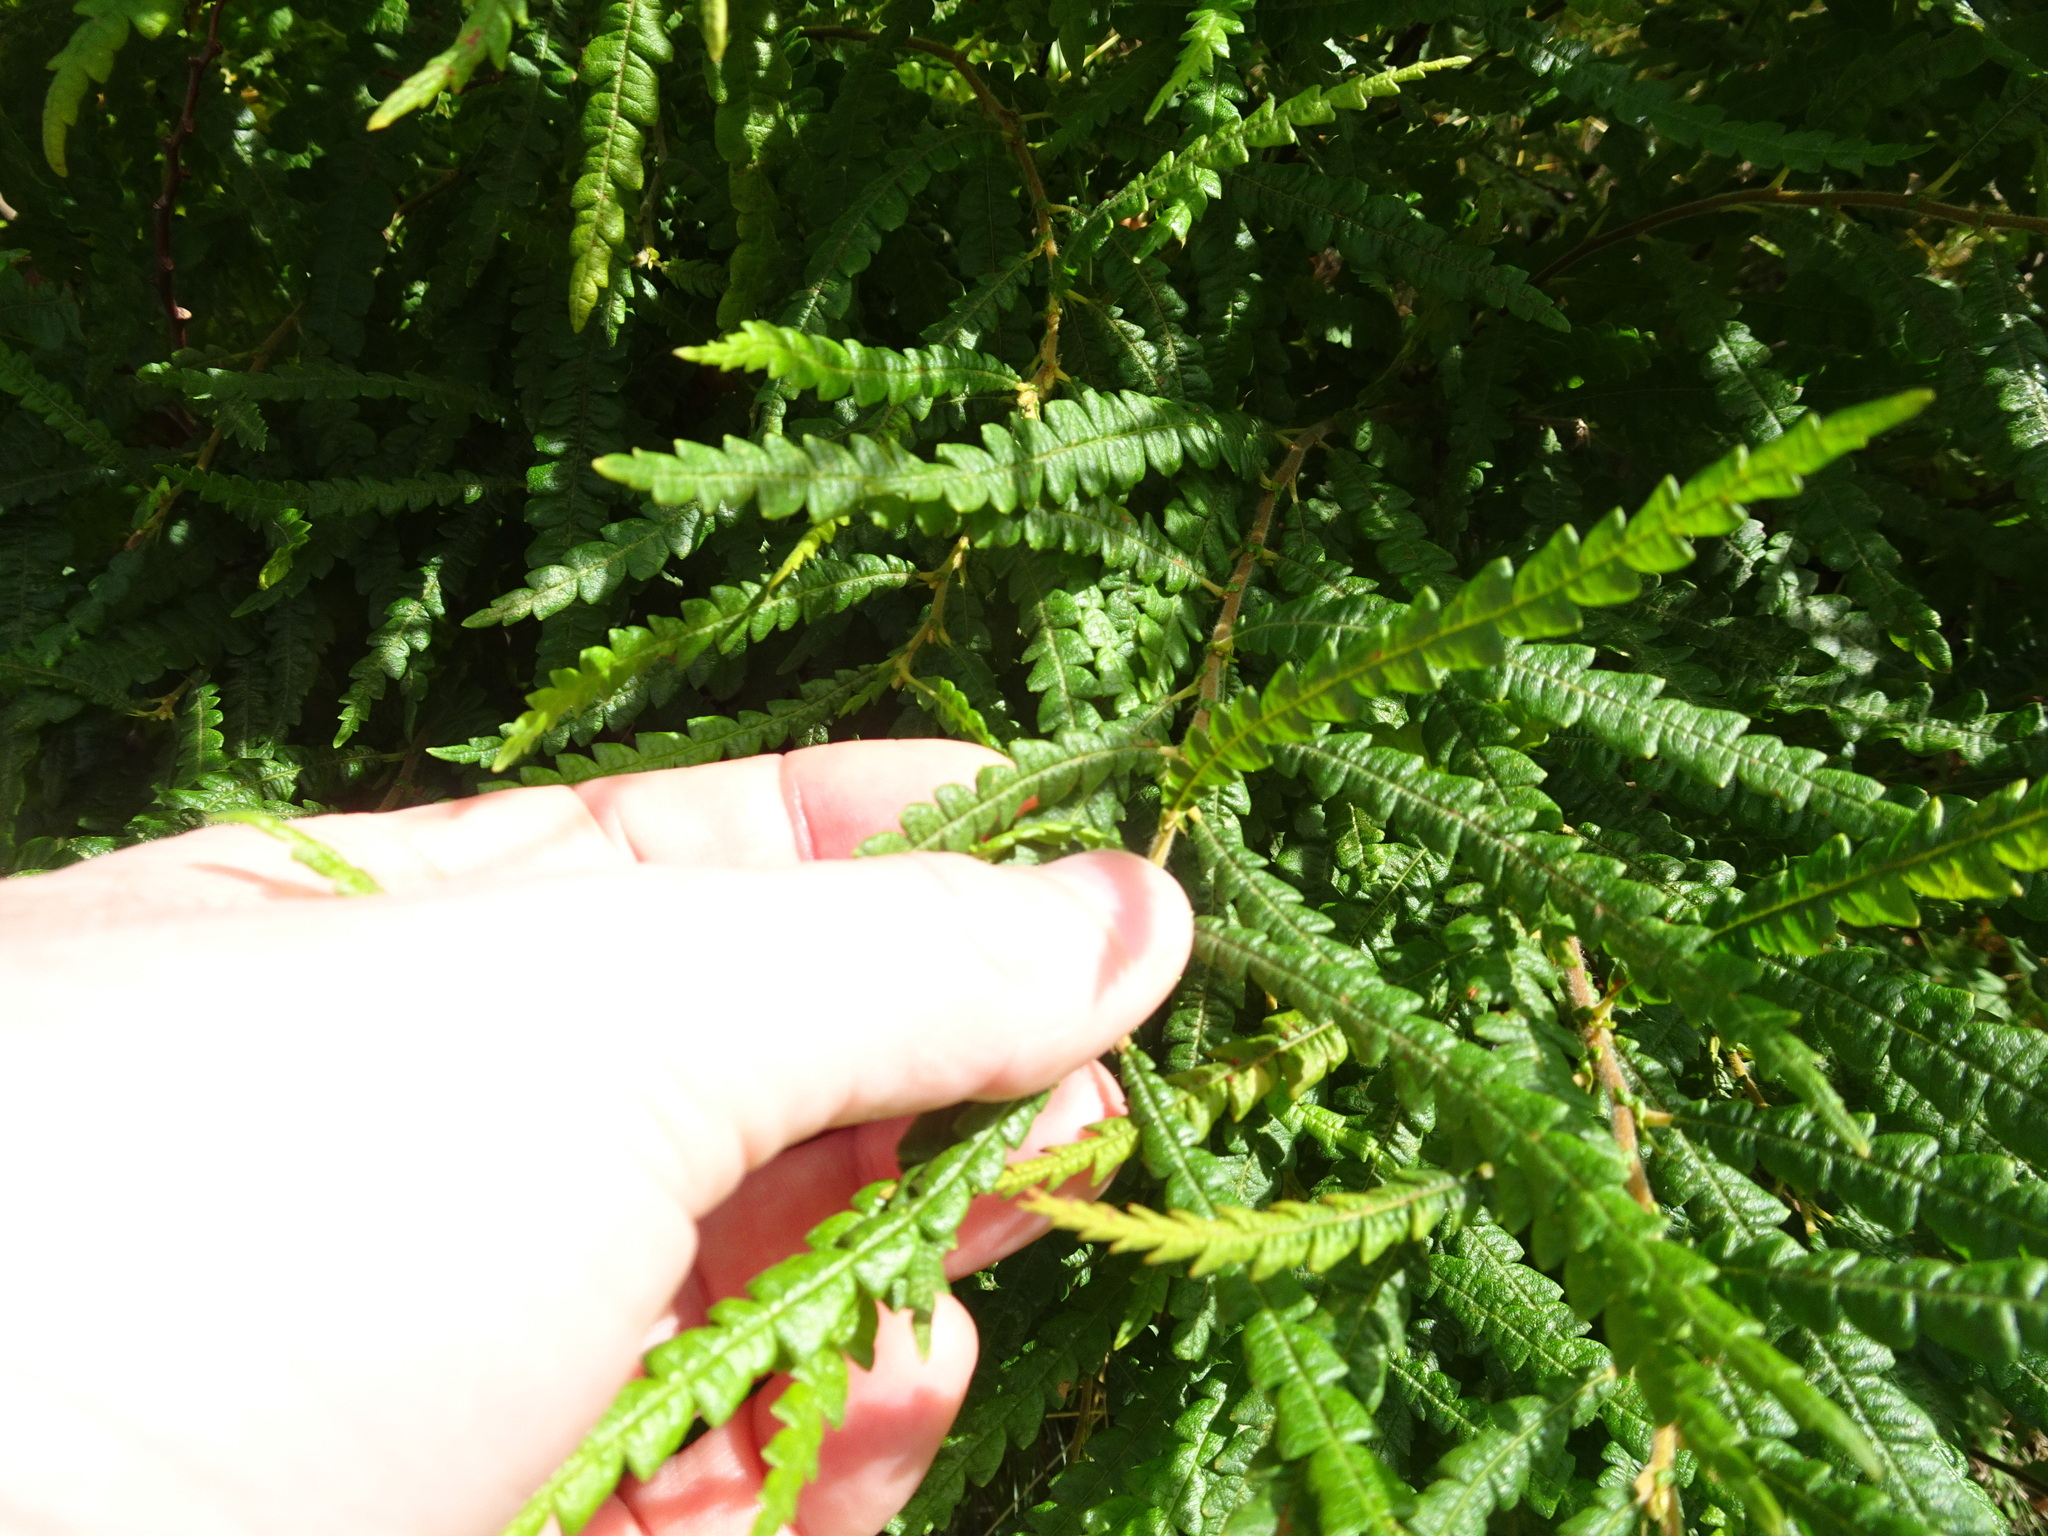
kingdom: Plantae
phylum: Tracheophyta
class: Magnoliopsida
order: Fagales
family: Myricaceae
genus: Comptonia
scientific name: Comptonia peregrina
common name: Sweet-fern
